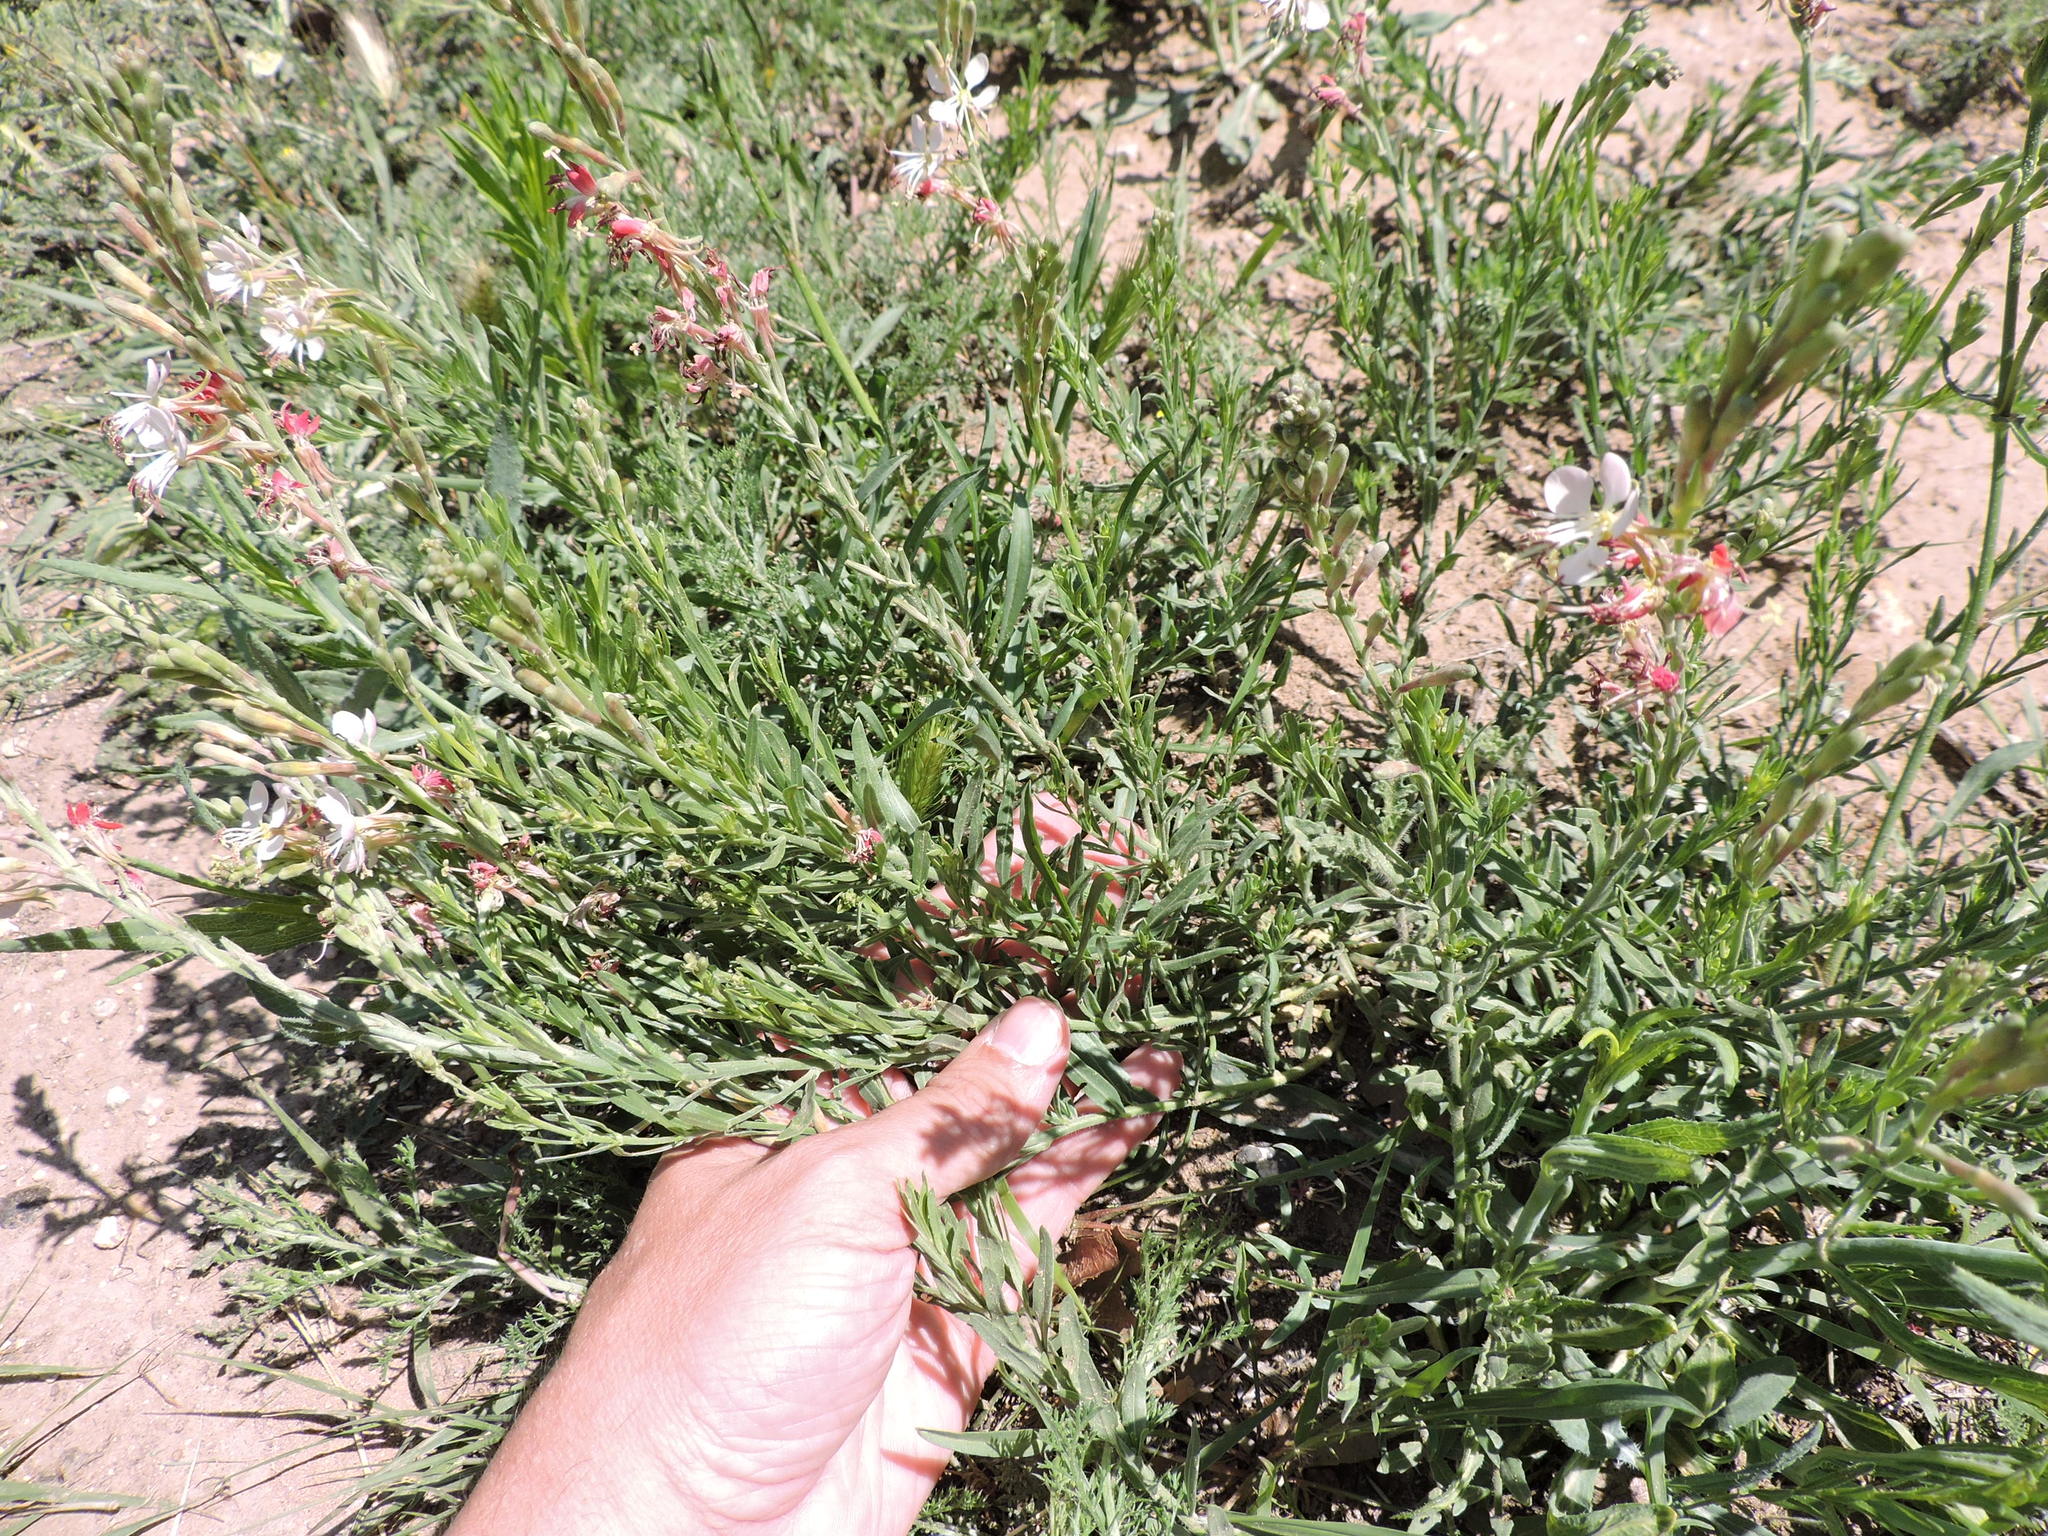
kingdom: Plantae
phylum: Tracheophyta
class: Magnoliopsida
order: Myrtales
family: Onagraceae
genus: Oenothera
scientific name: Oenothera suffrutescens
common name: Scarlet beeblossom
